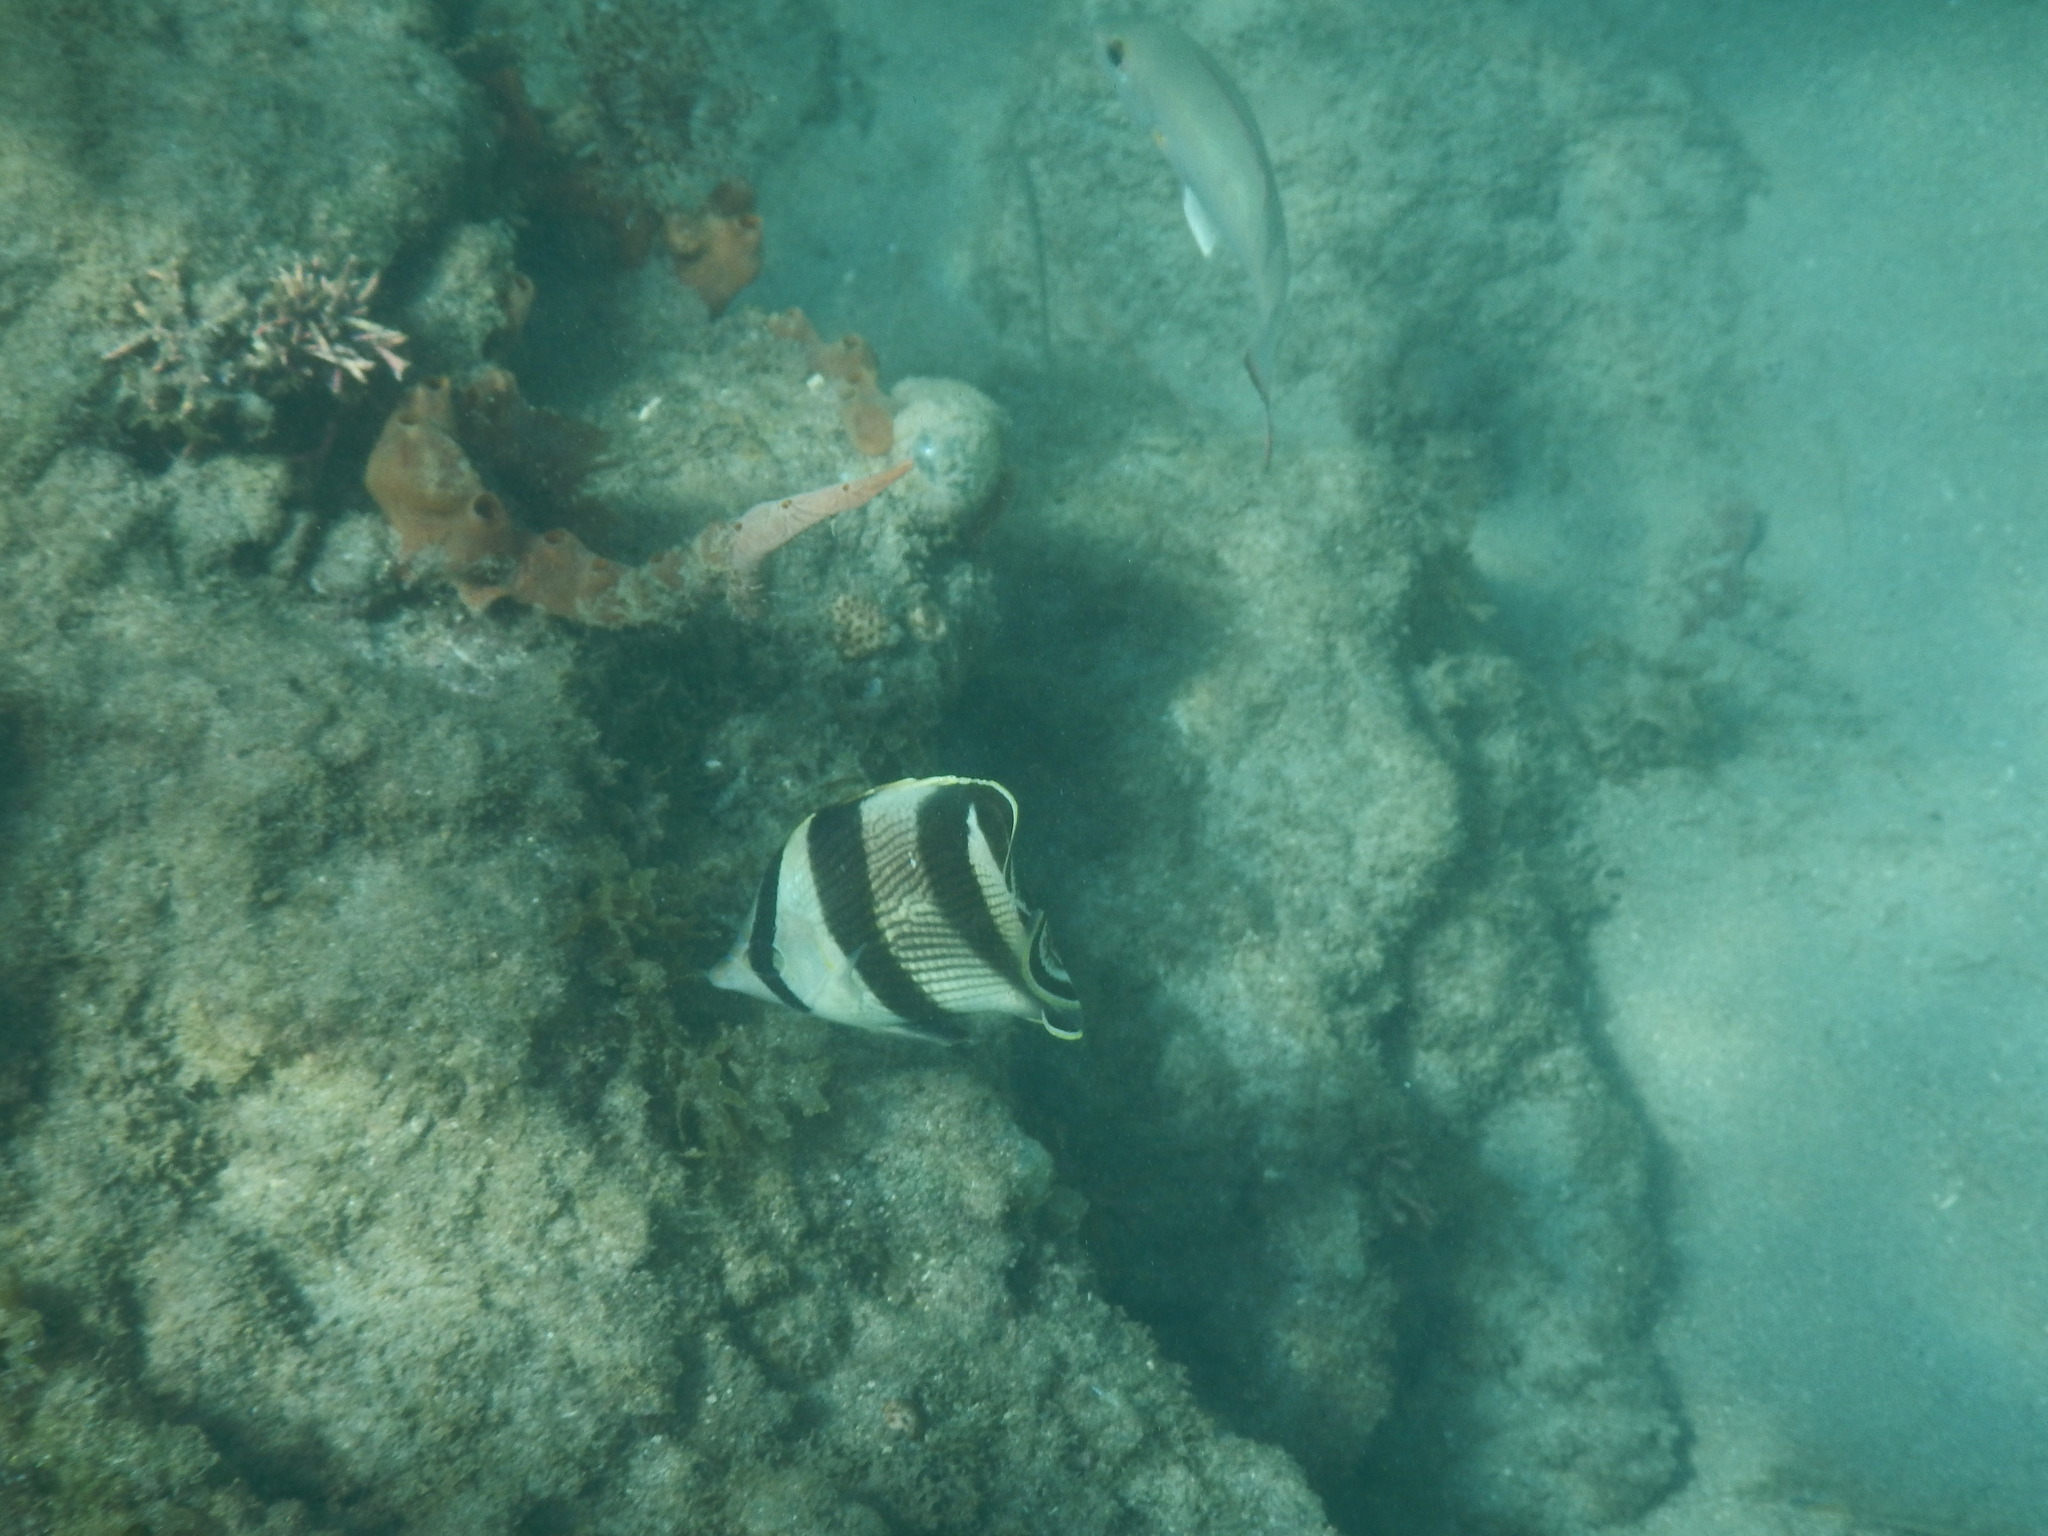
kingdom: Animalia
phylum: Chordata
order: Perciformes
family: Chaetodontidae
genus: Chaetodon
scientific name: Chaetodon striatus
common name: Banded butterflyfish
